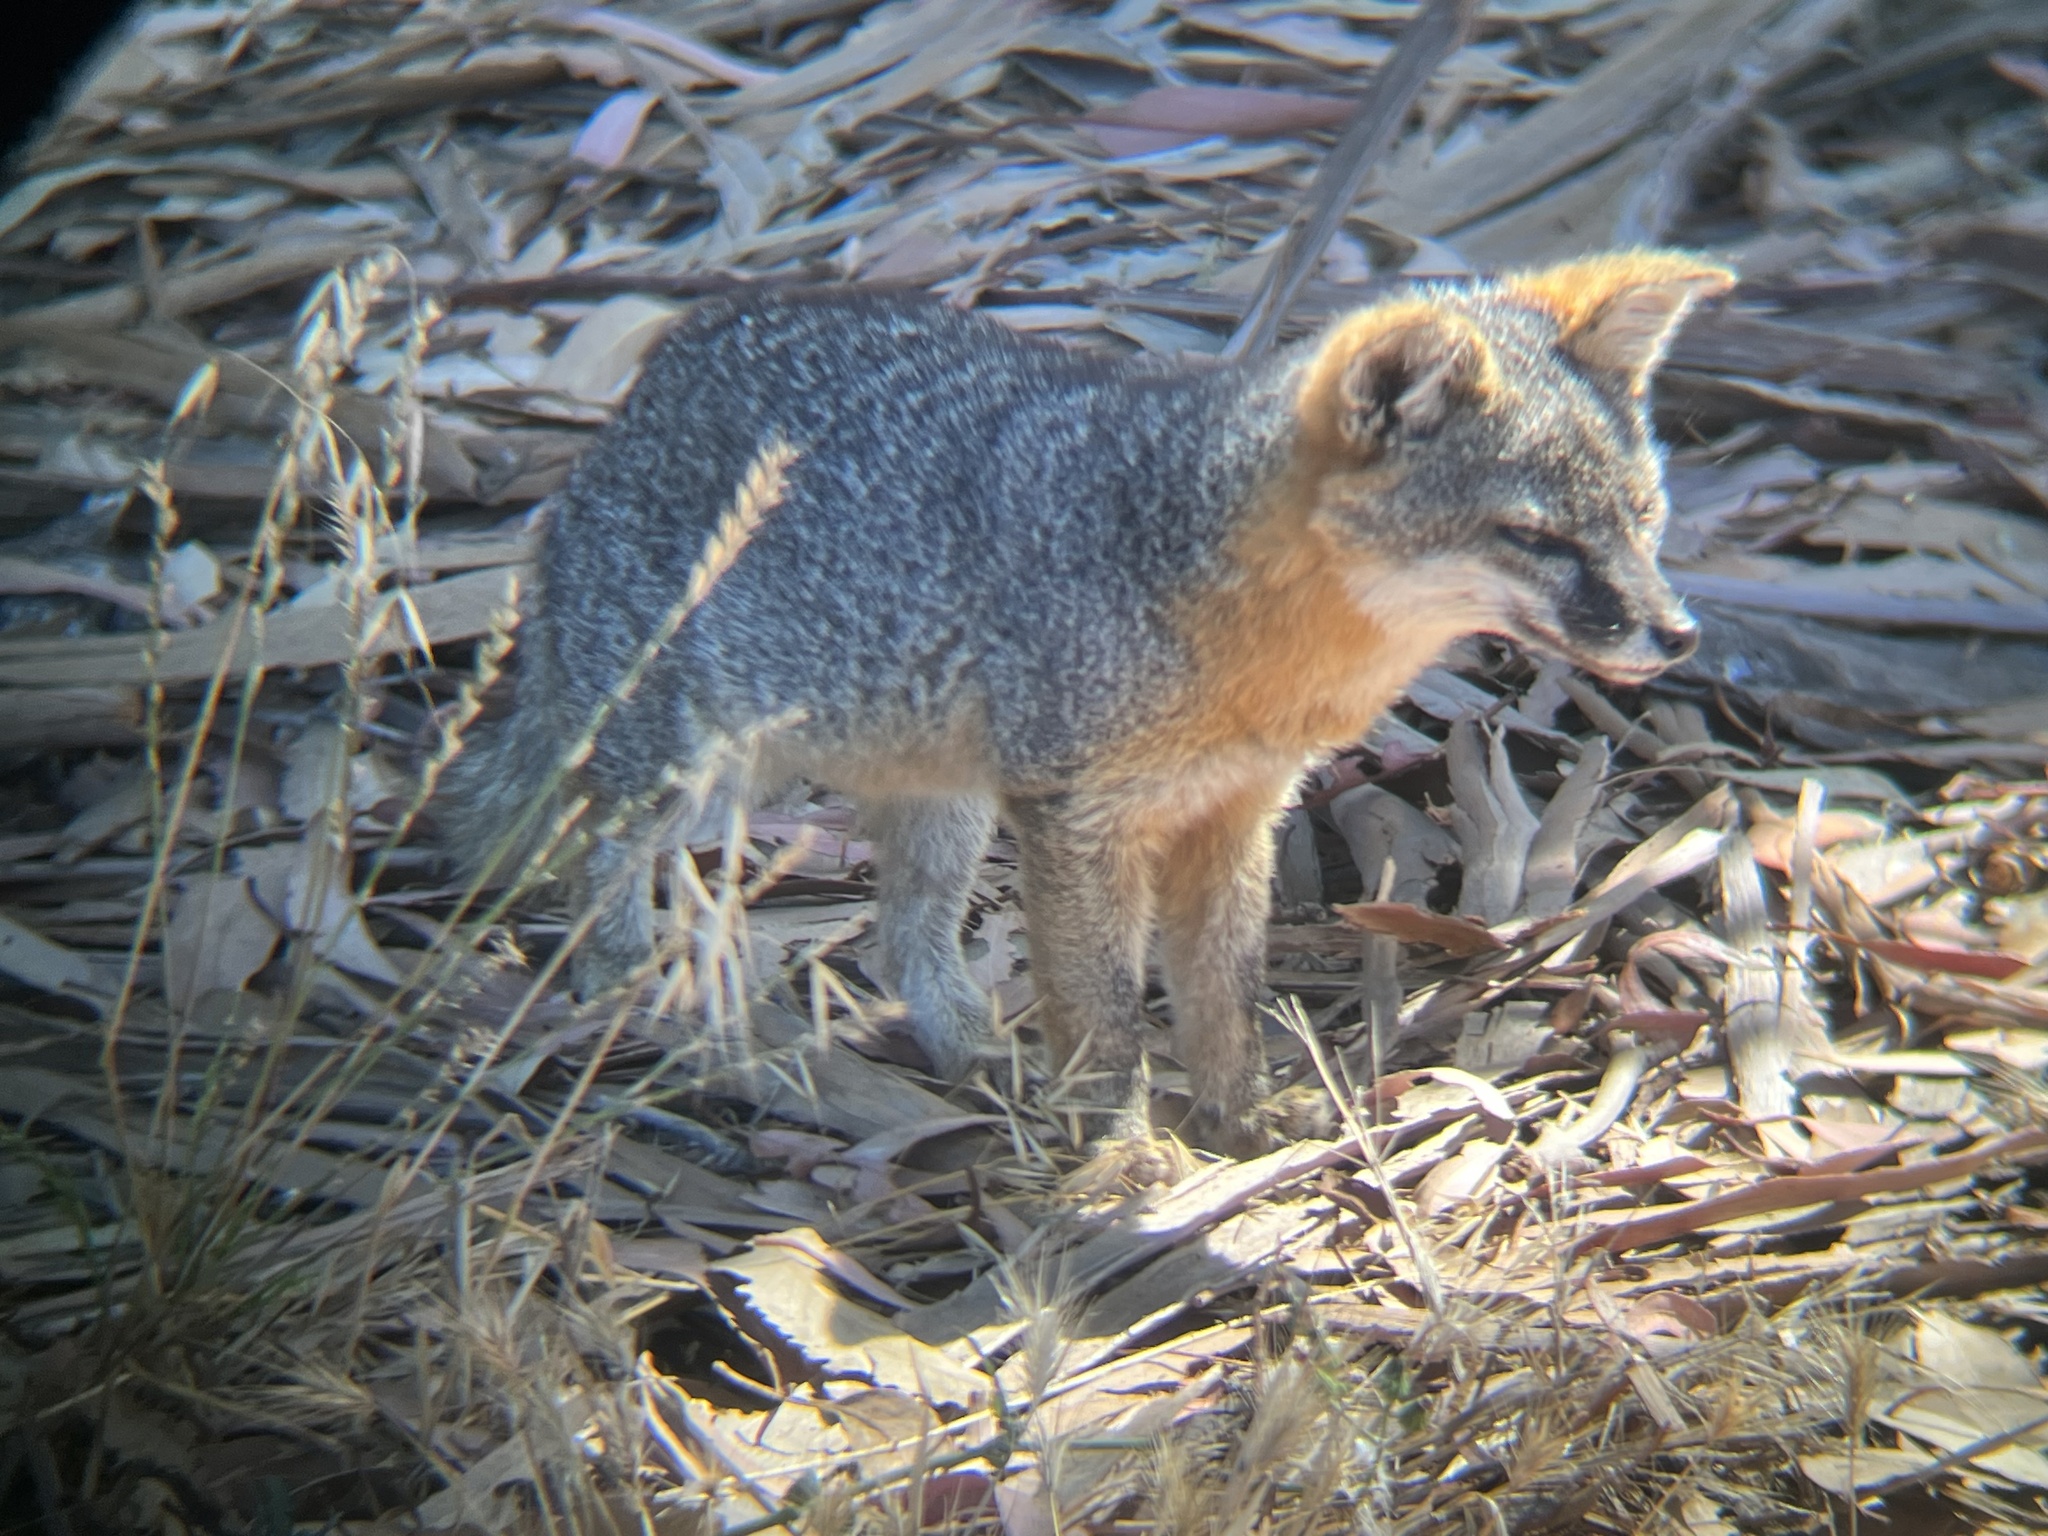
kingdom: Animalia
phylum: Chordata
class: Mammalia
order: Carnivora
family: Canidae
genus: Urocyon
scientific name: Urocyon littoralis
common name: Island gray fox
